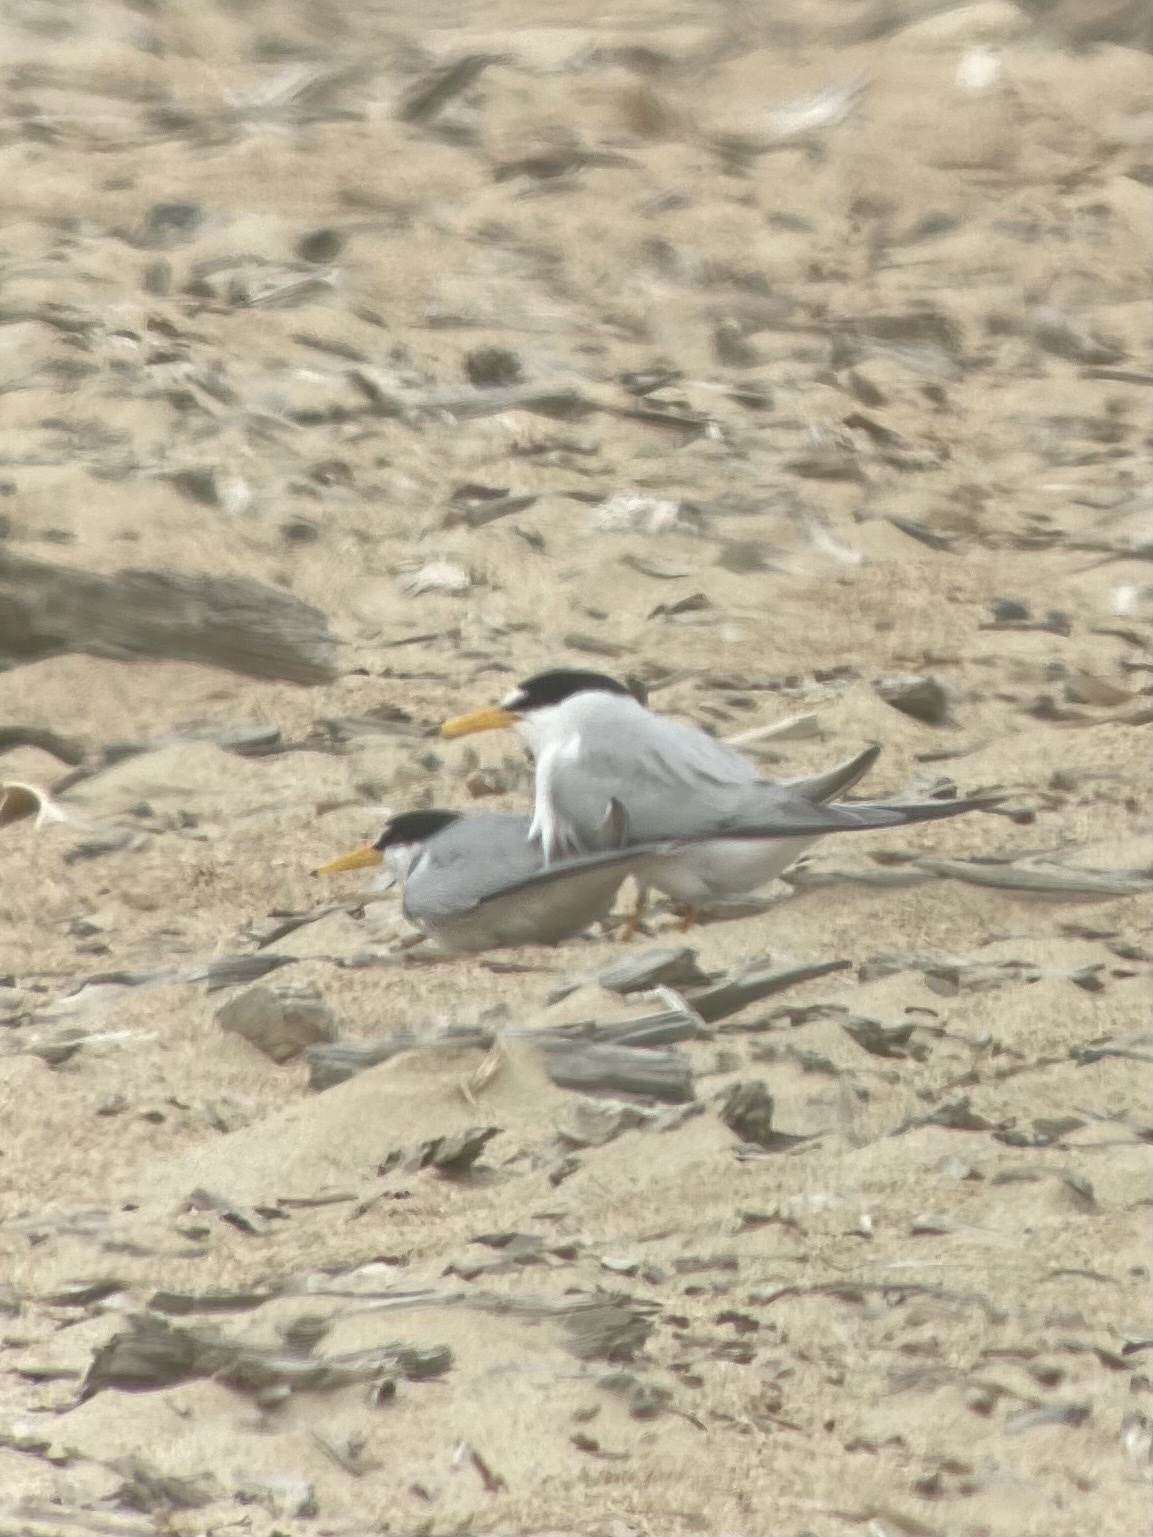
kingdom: Animalia
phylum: Chordata
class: Aves
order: Charadriiformes
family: Laridae
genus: Sternula
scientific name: Sternula antillarum
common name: Least tern
